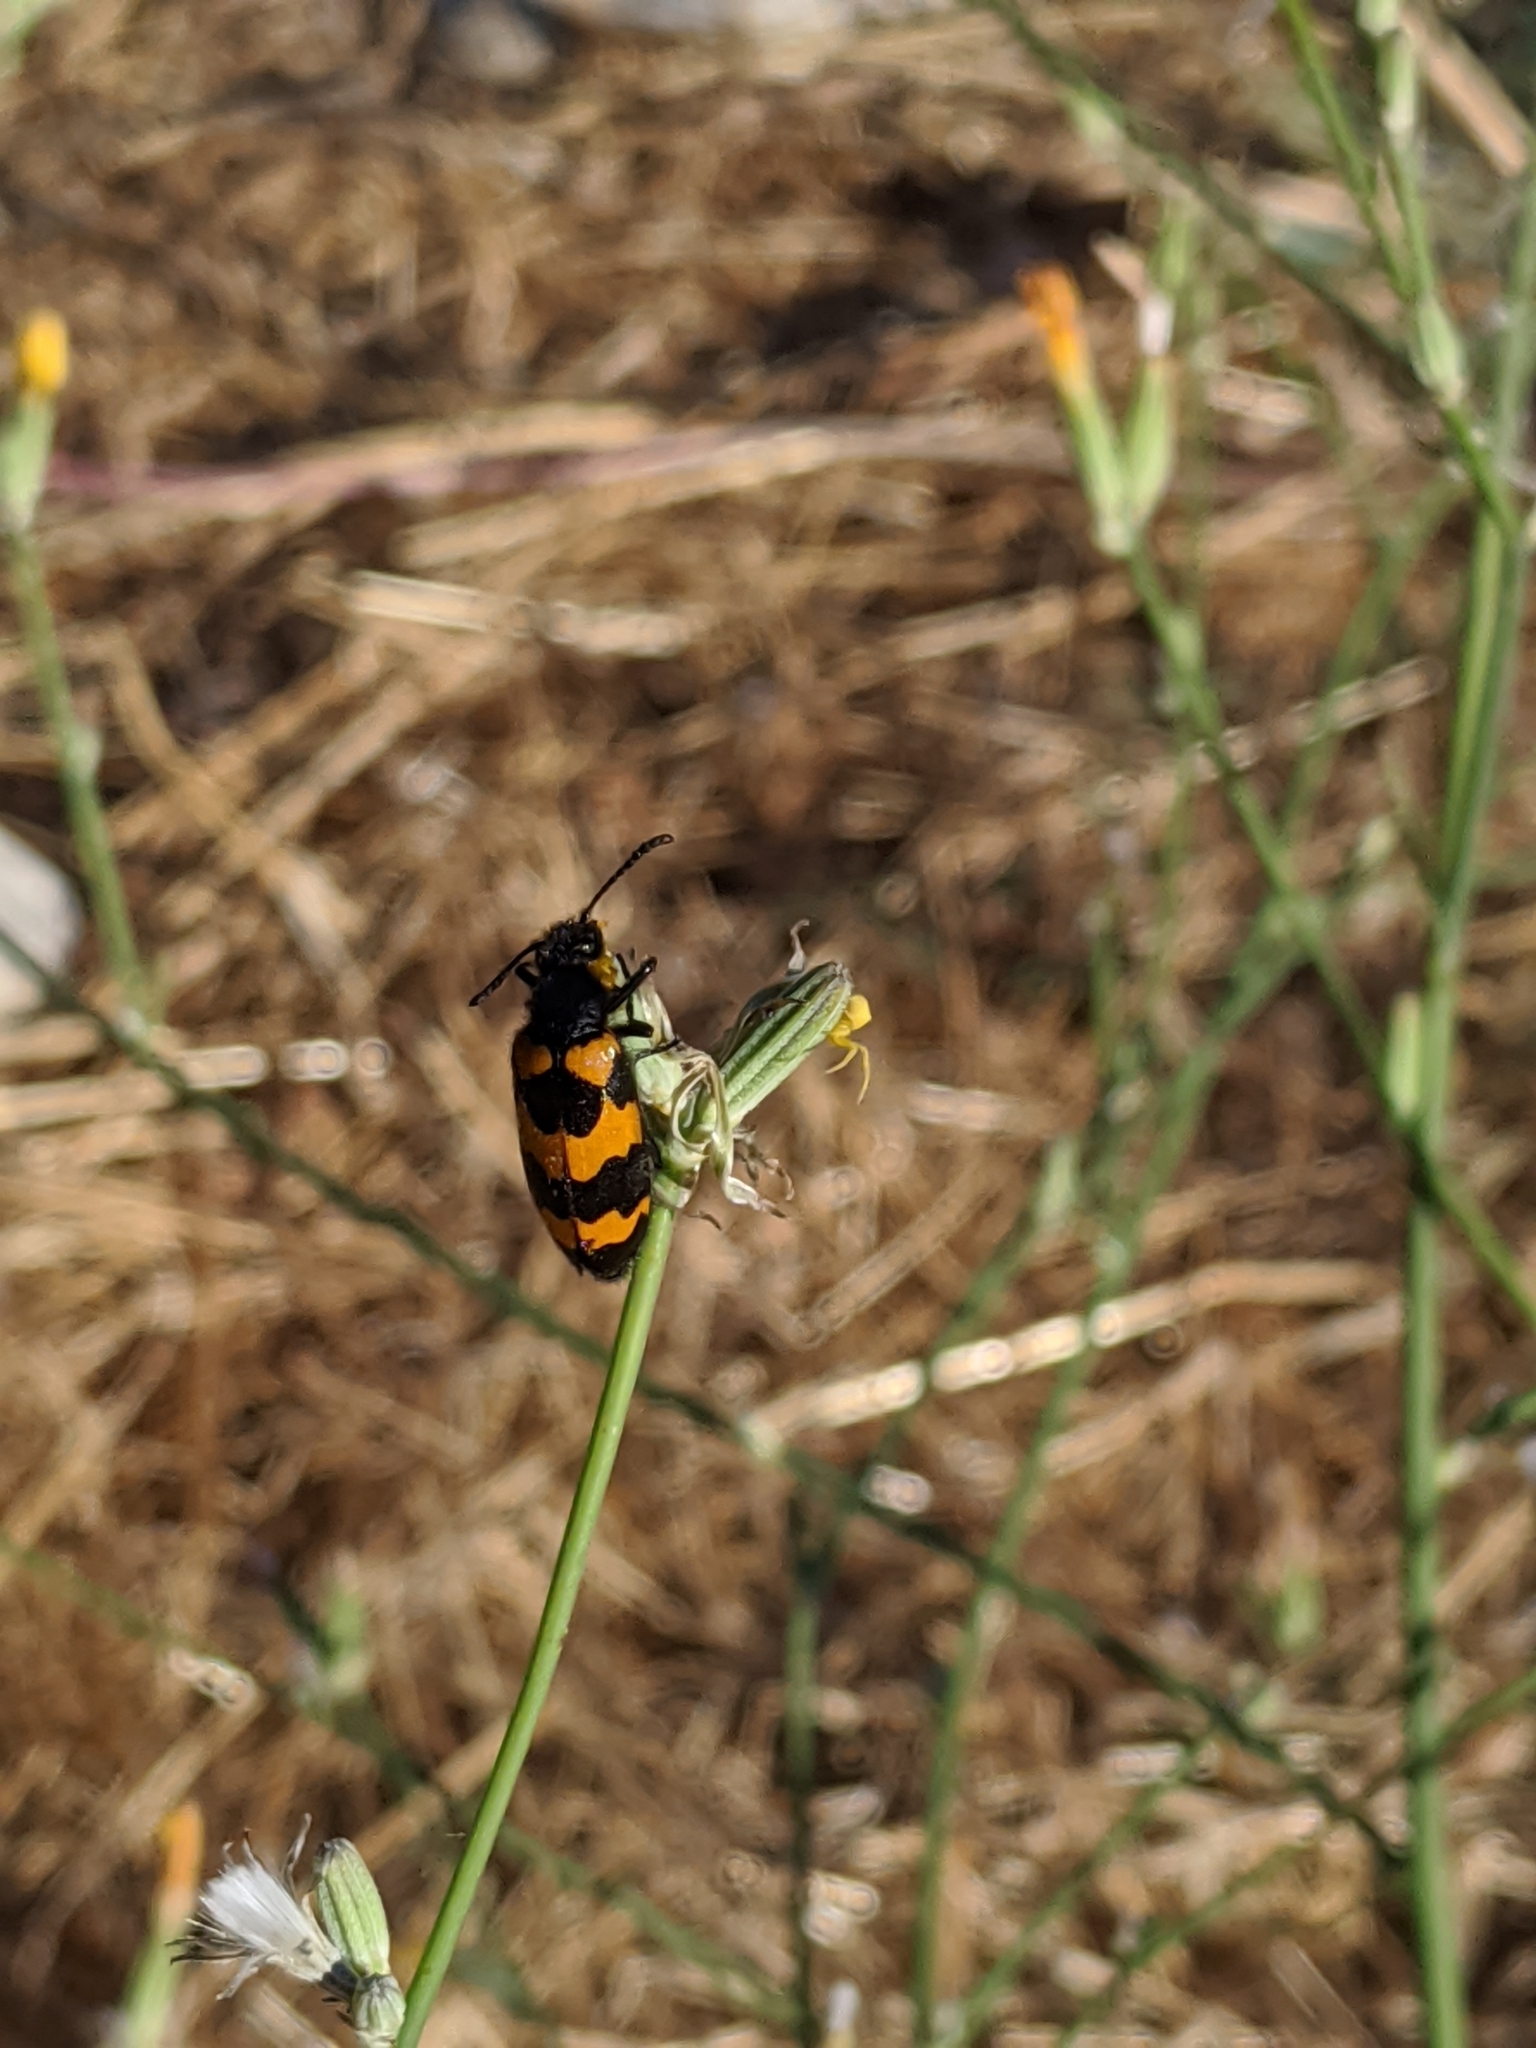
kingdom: Animalia
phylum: Arthropoda
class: Insecta
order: Coleoptera
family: Meloidae
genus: Mylabris
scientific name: Mylabris variabilis
